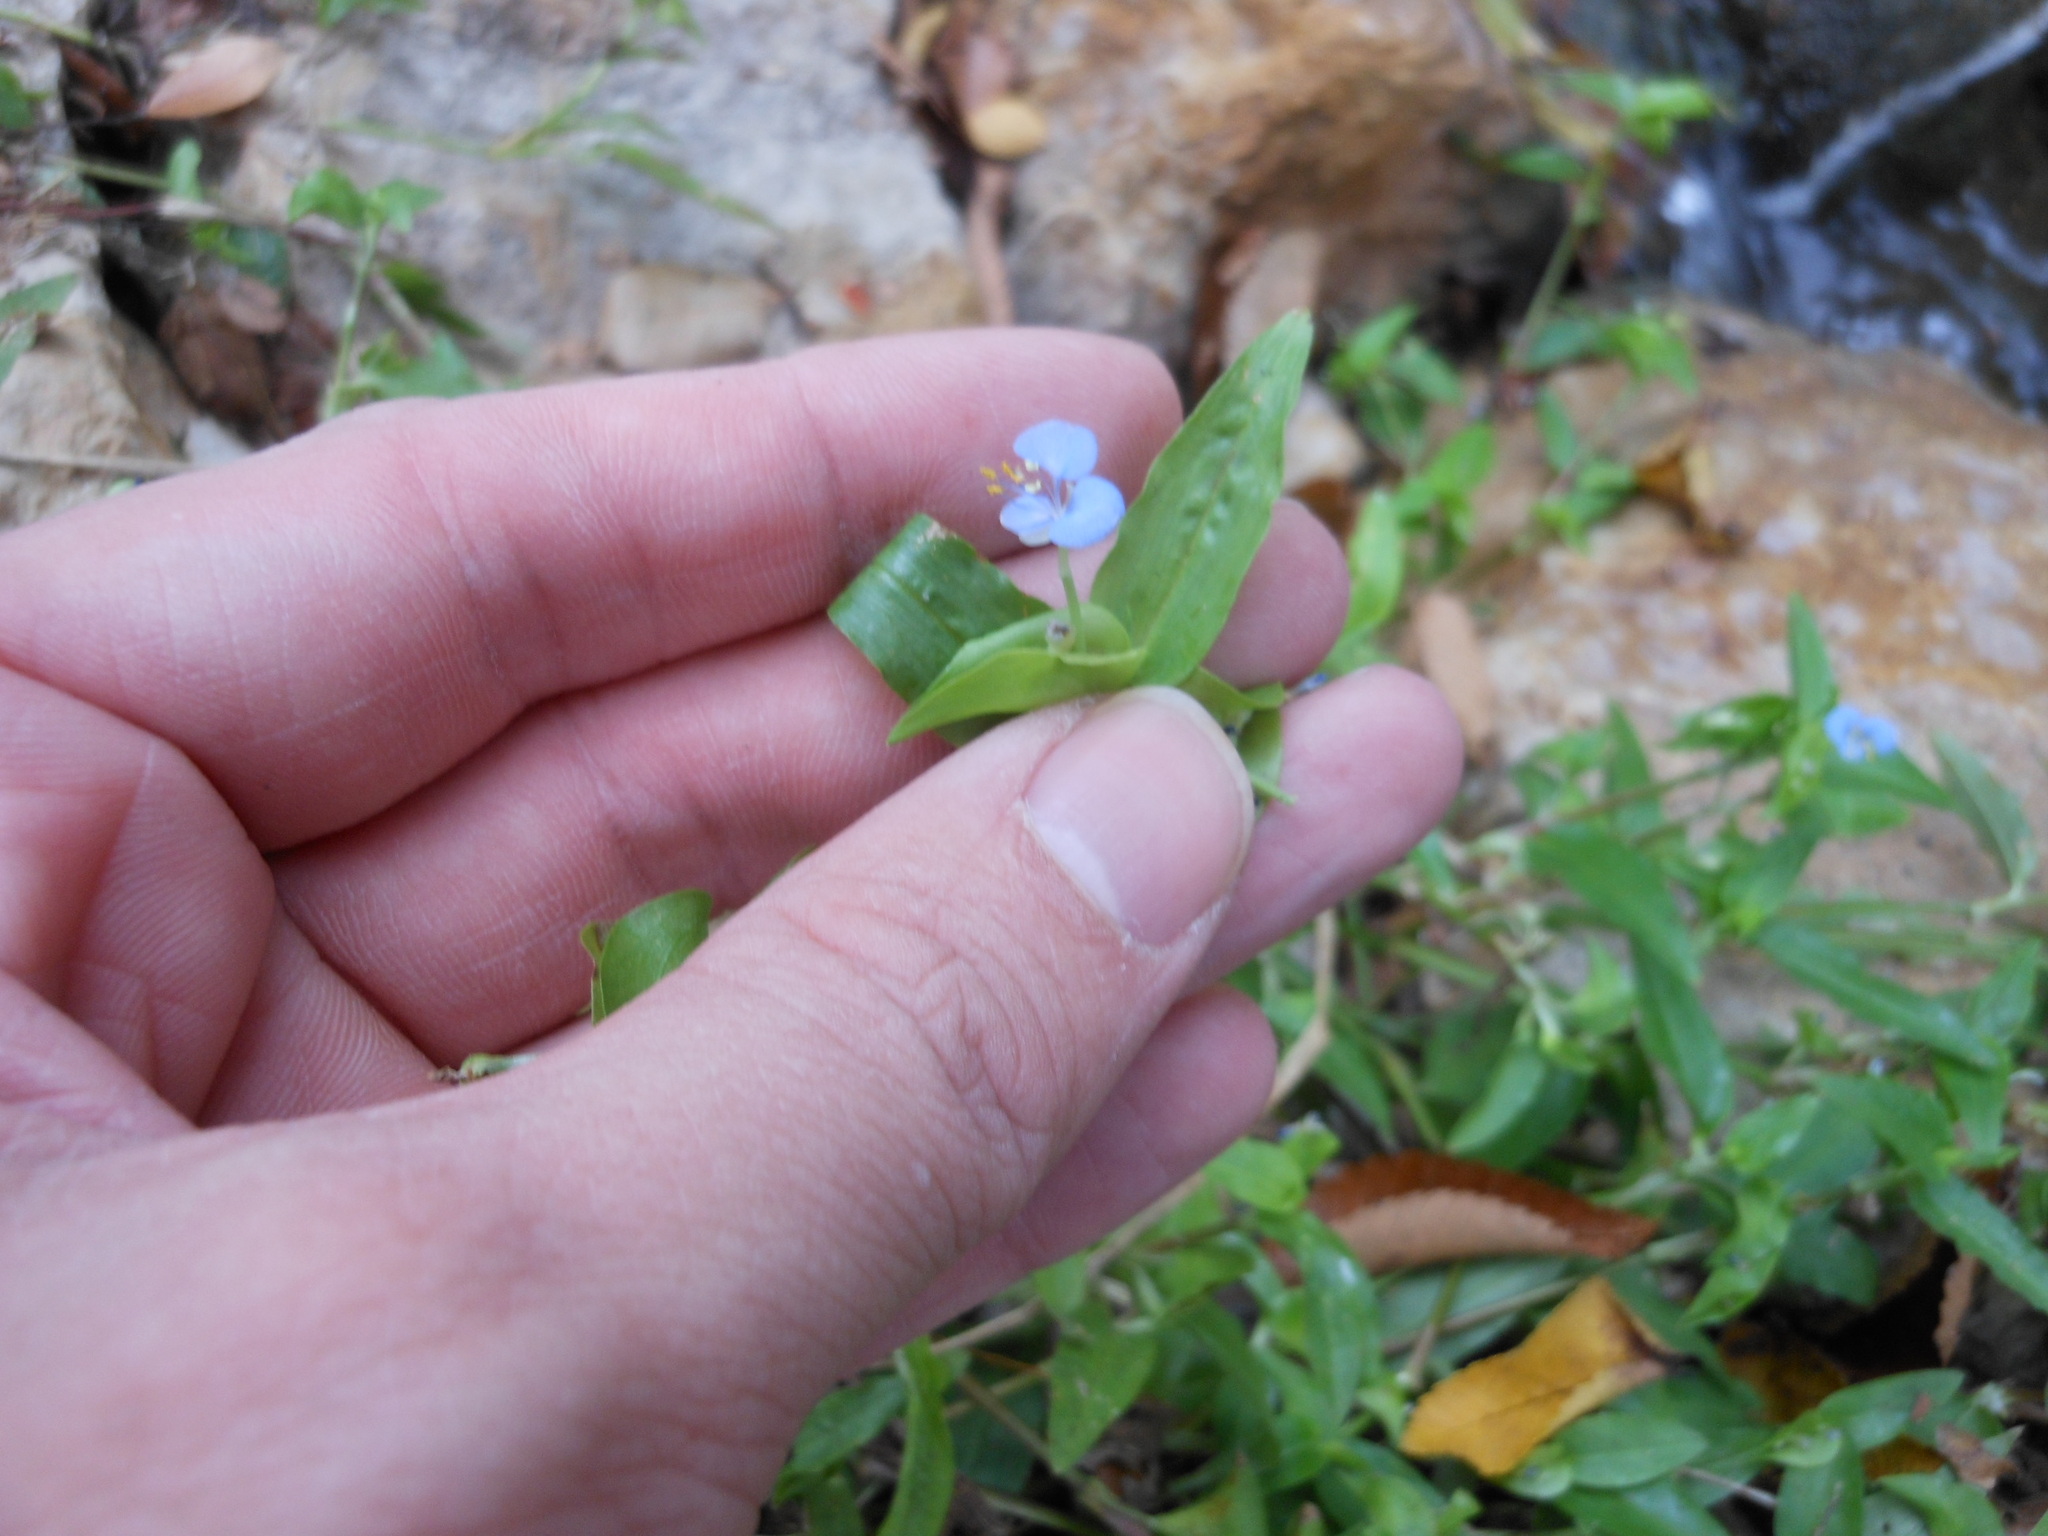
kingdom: Plantae
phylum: Tracheophyta
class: Liliopsida
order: Commelinales
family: Commelinaceae
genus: Commelina
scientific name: Commelina diffusa
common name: Climbing dayflower
